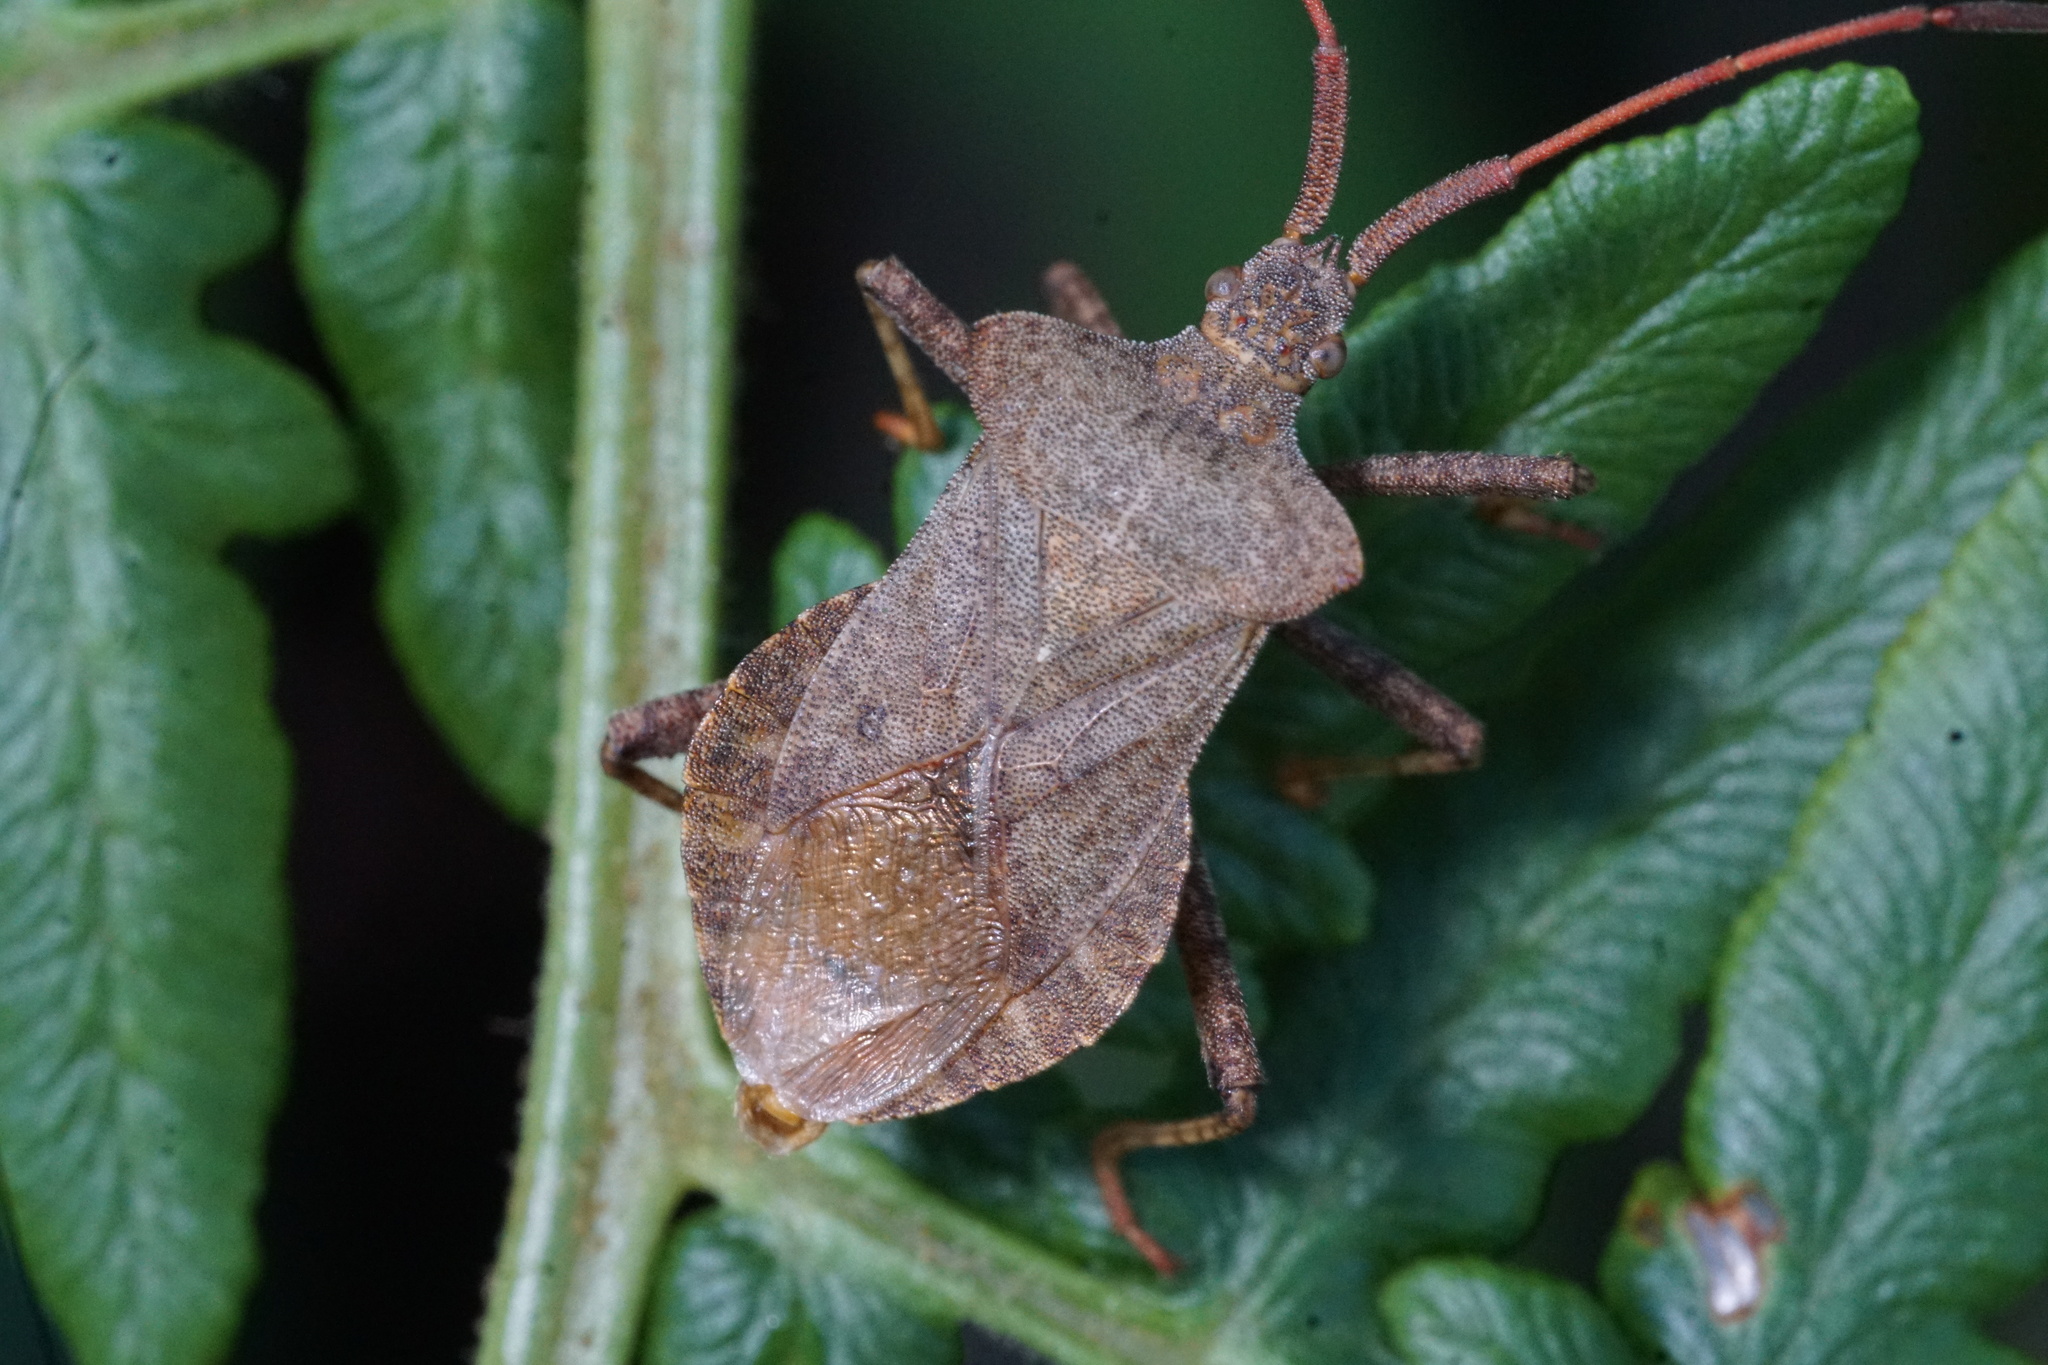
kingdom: Animalia
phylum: Arthropoda
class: Insecta
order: Hemiptera
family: Coreidae
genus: Coreus
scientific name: Coreus marginatus
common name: Dock bug
